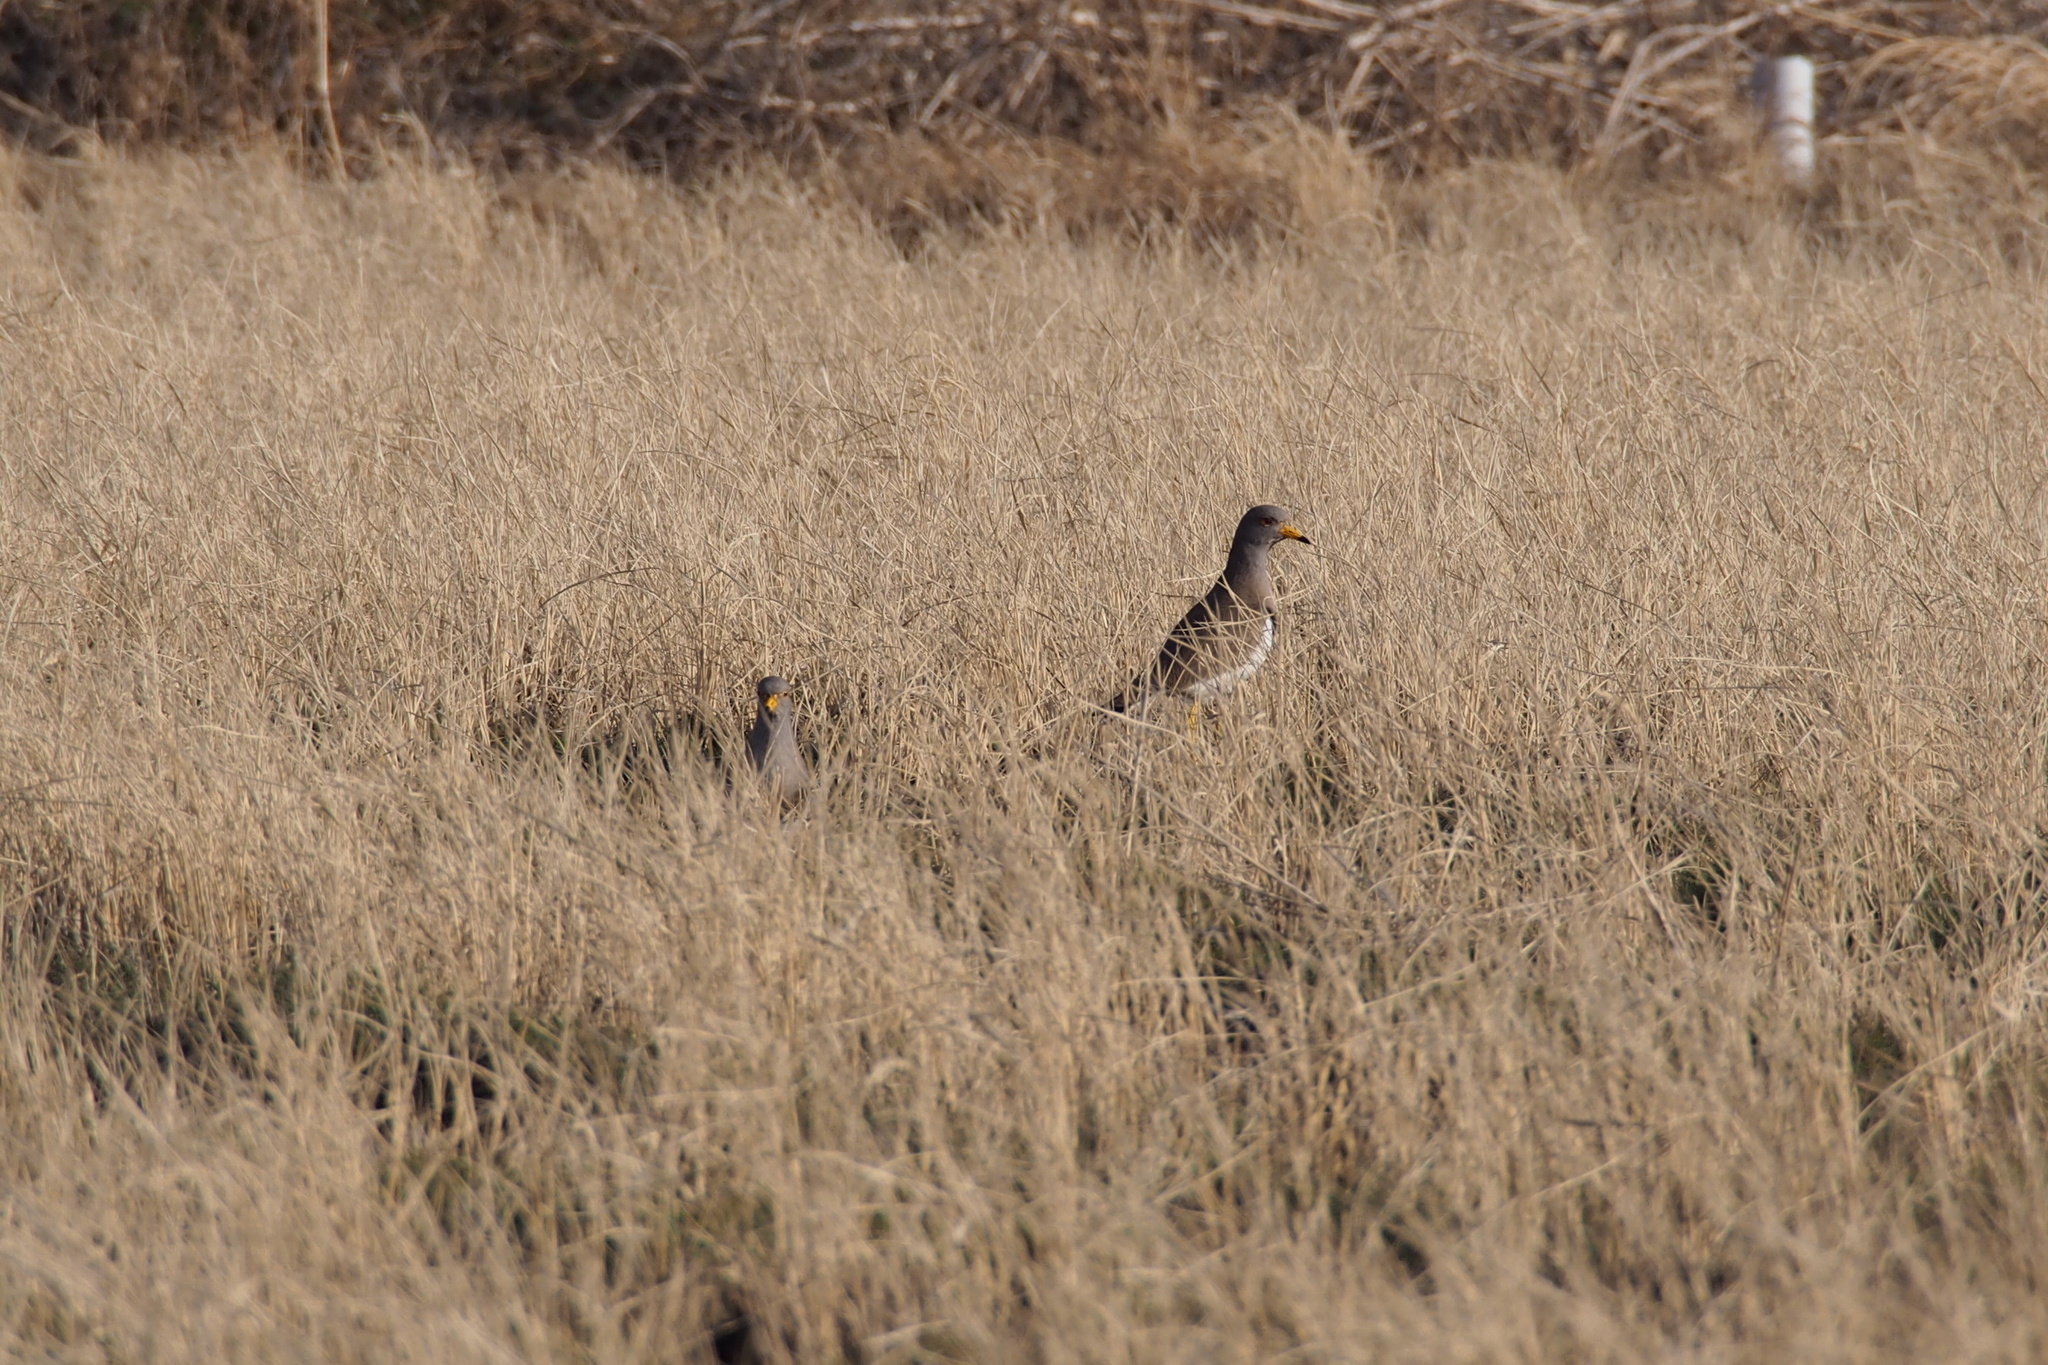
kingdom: Animalia
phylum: Chordata
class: Aves
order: Charadriiformes
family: Charadriidae
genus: Vanellus
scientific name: Vanellus cinereus
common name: Grey-headed lapwing
